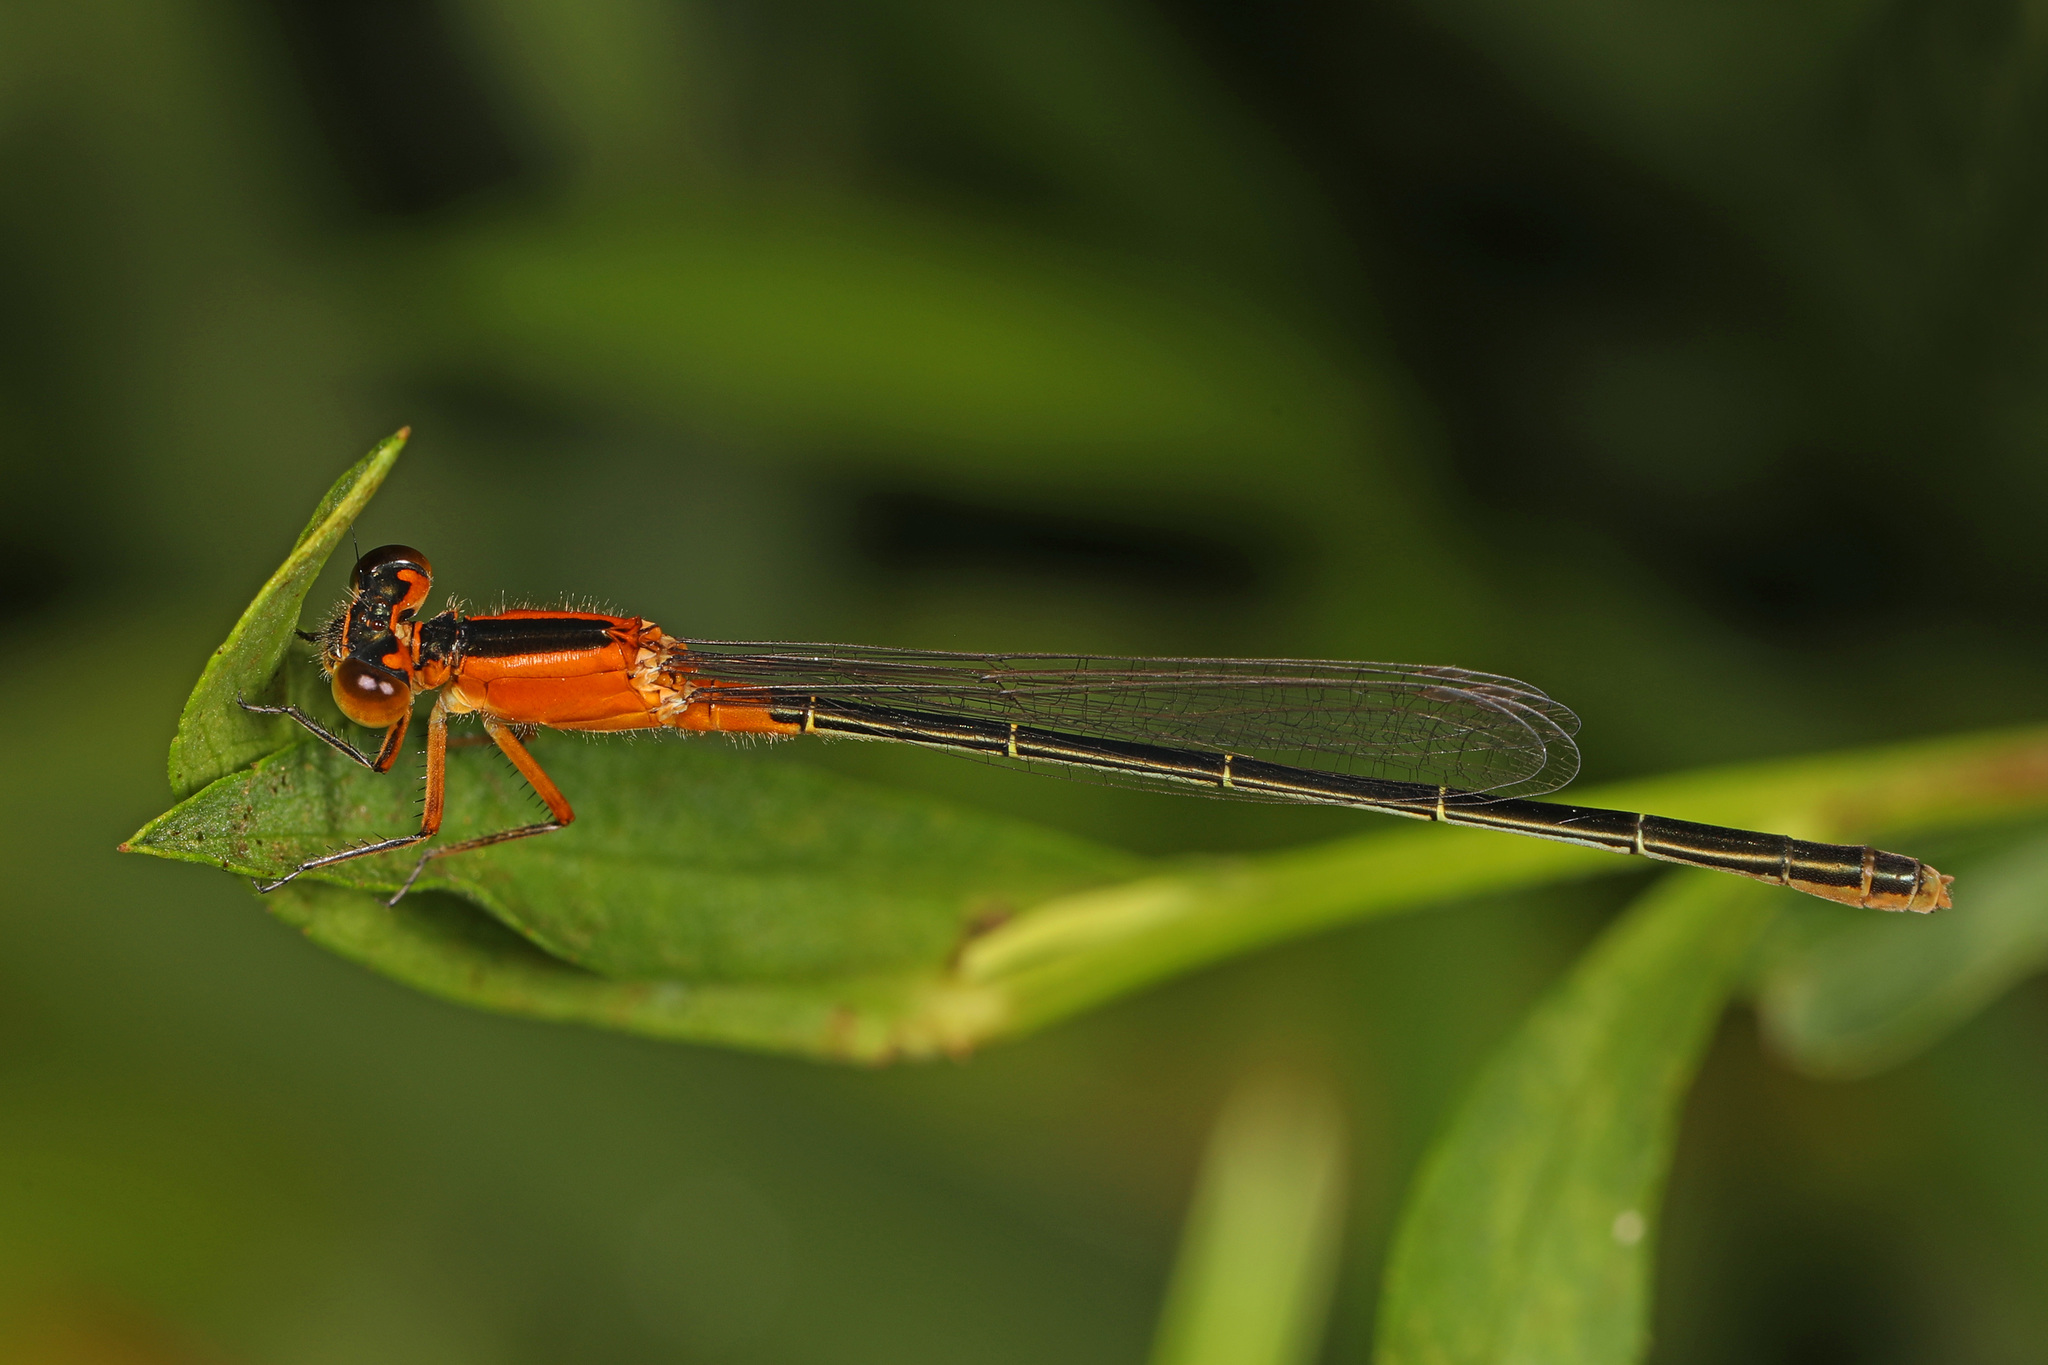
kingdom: Animalia
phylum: Arthropoda
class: Insecta
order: Odonata
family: Coenagrionidae
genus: Ischnura
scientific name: Ischnura ramburii
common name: Rambur's forktail
